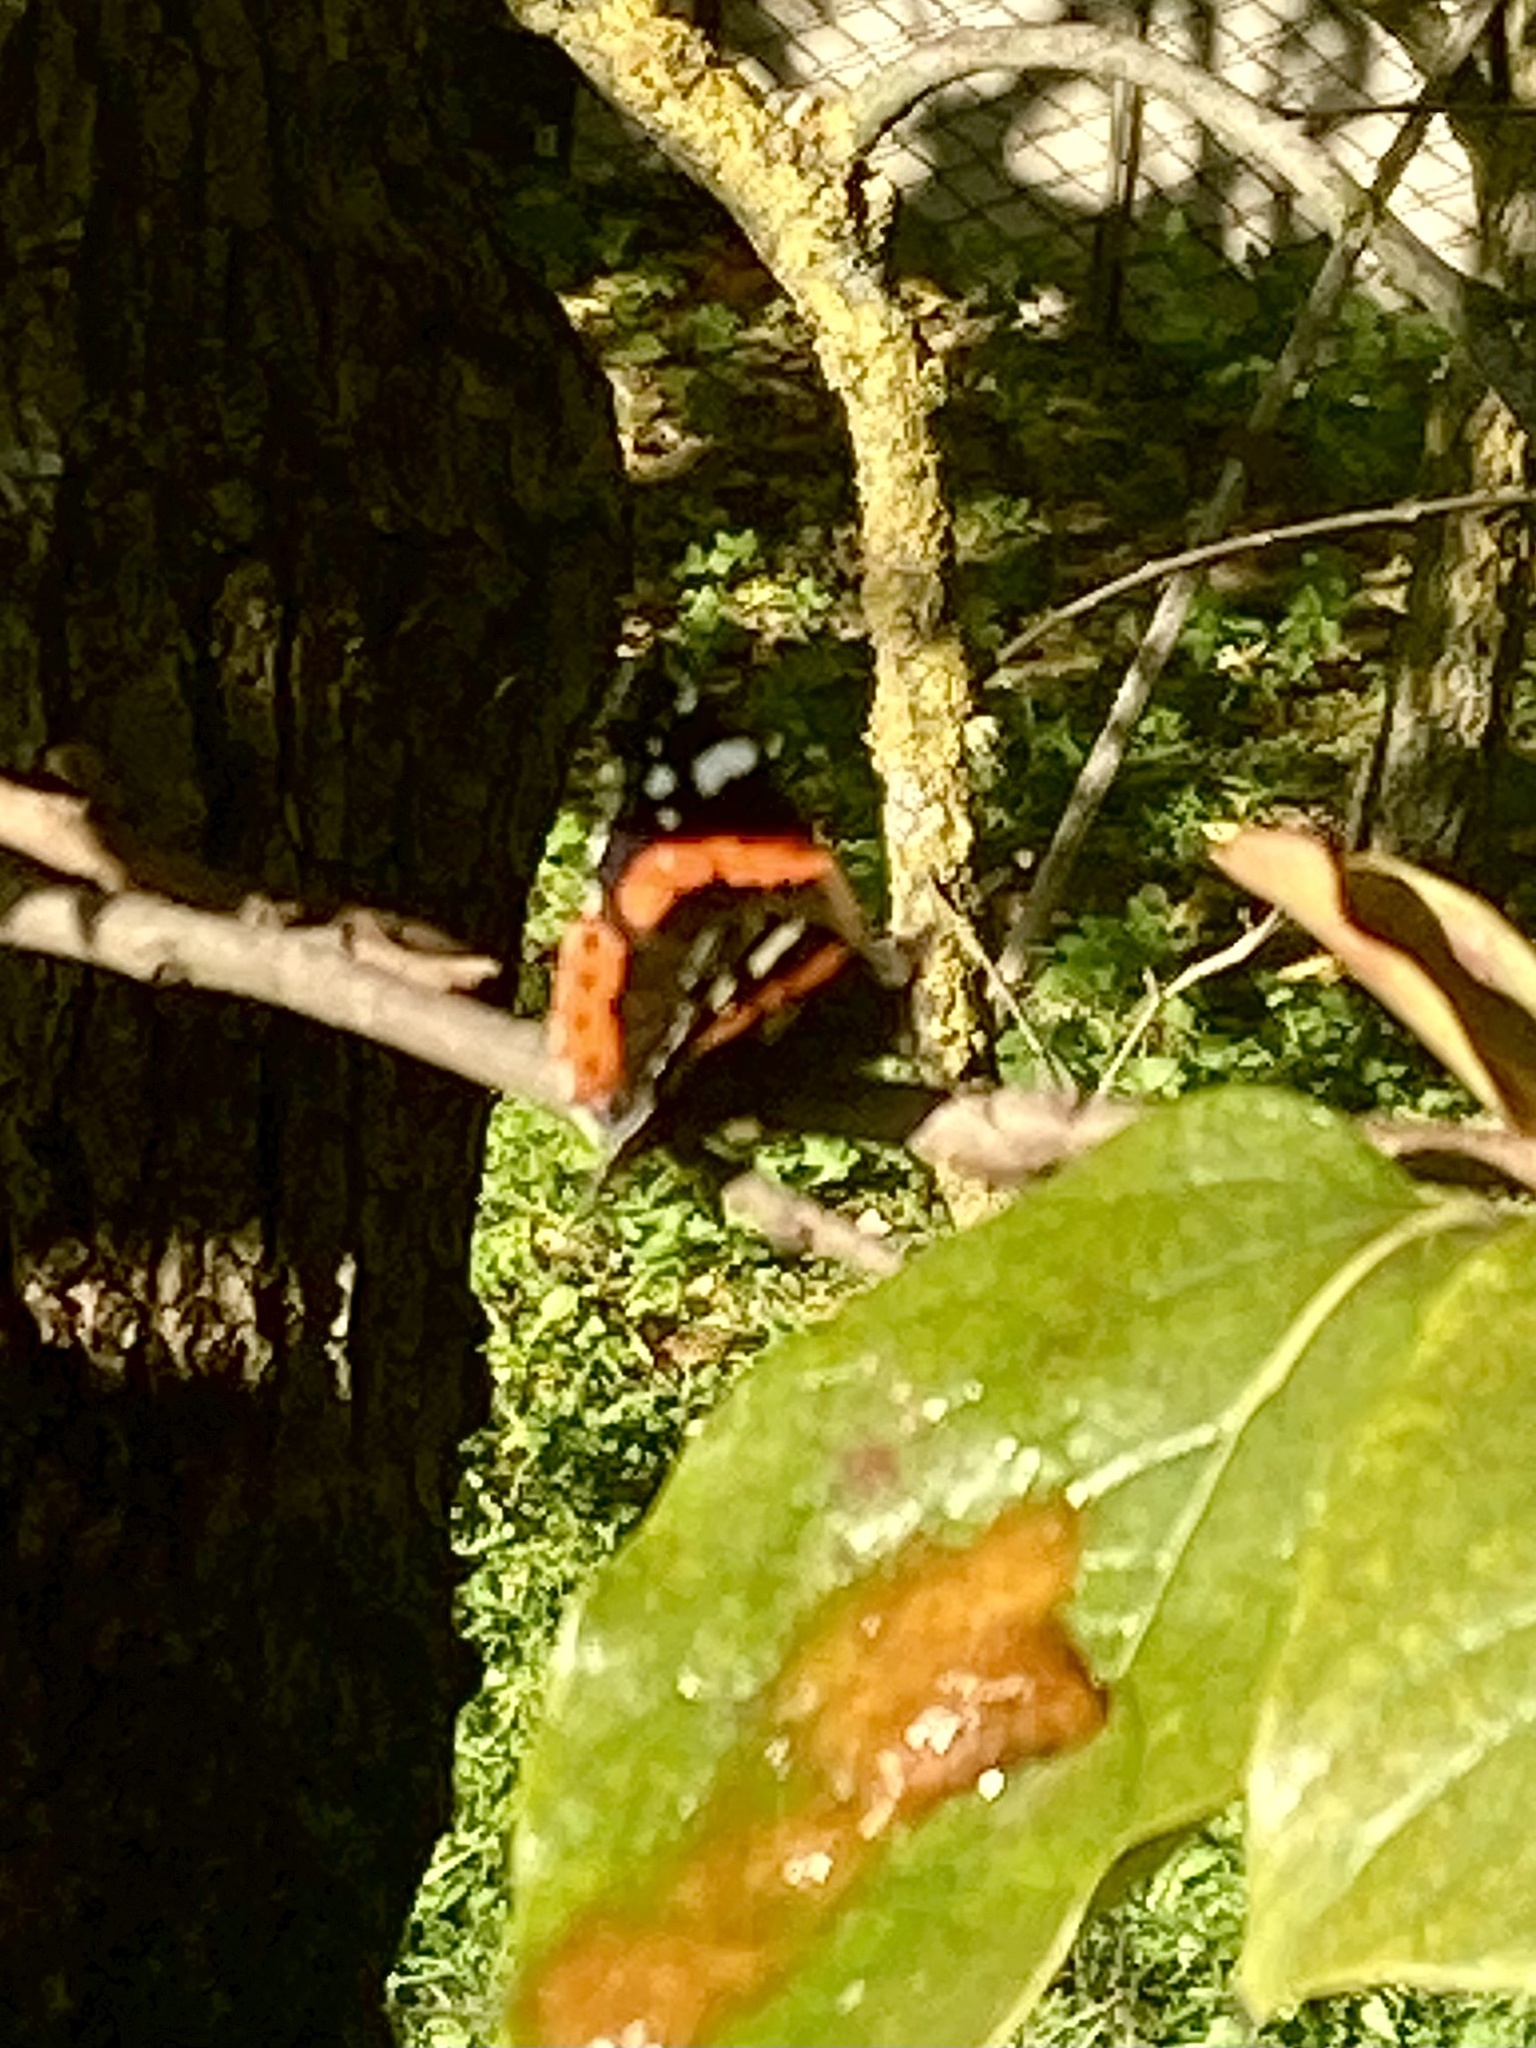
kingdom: Animalia
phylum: Arthropoda
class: Insecta
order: Lepidoptera
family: Nymphalidae
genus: Vanessa
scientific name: Vanessa atalanta
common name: Red admiral
